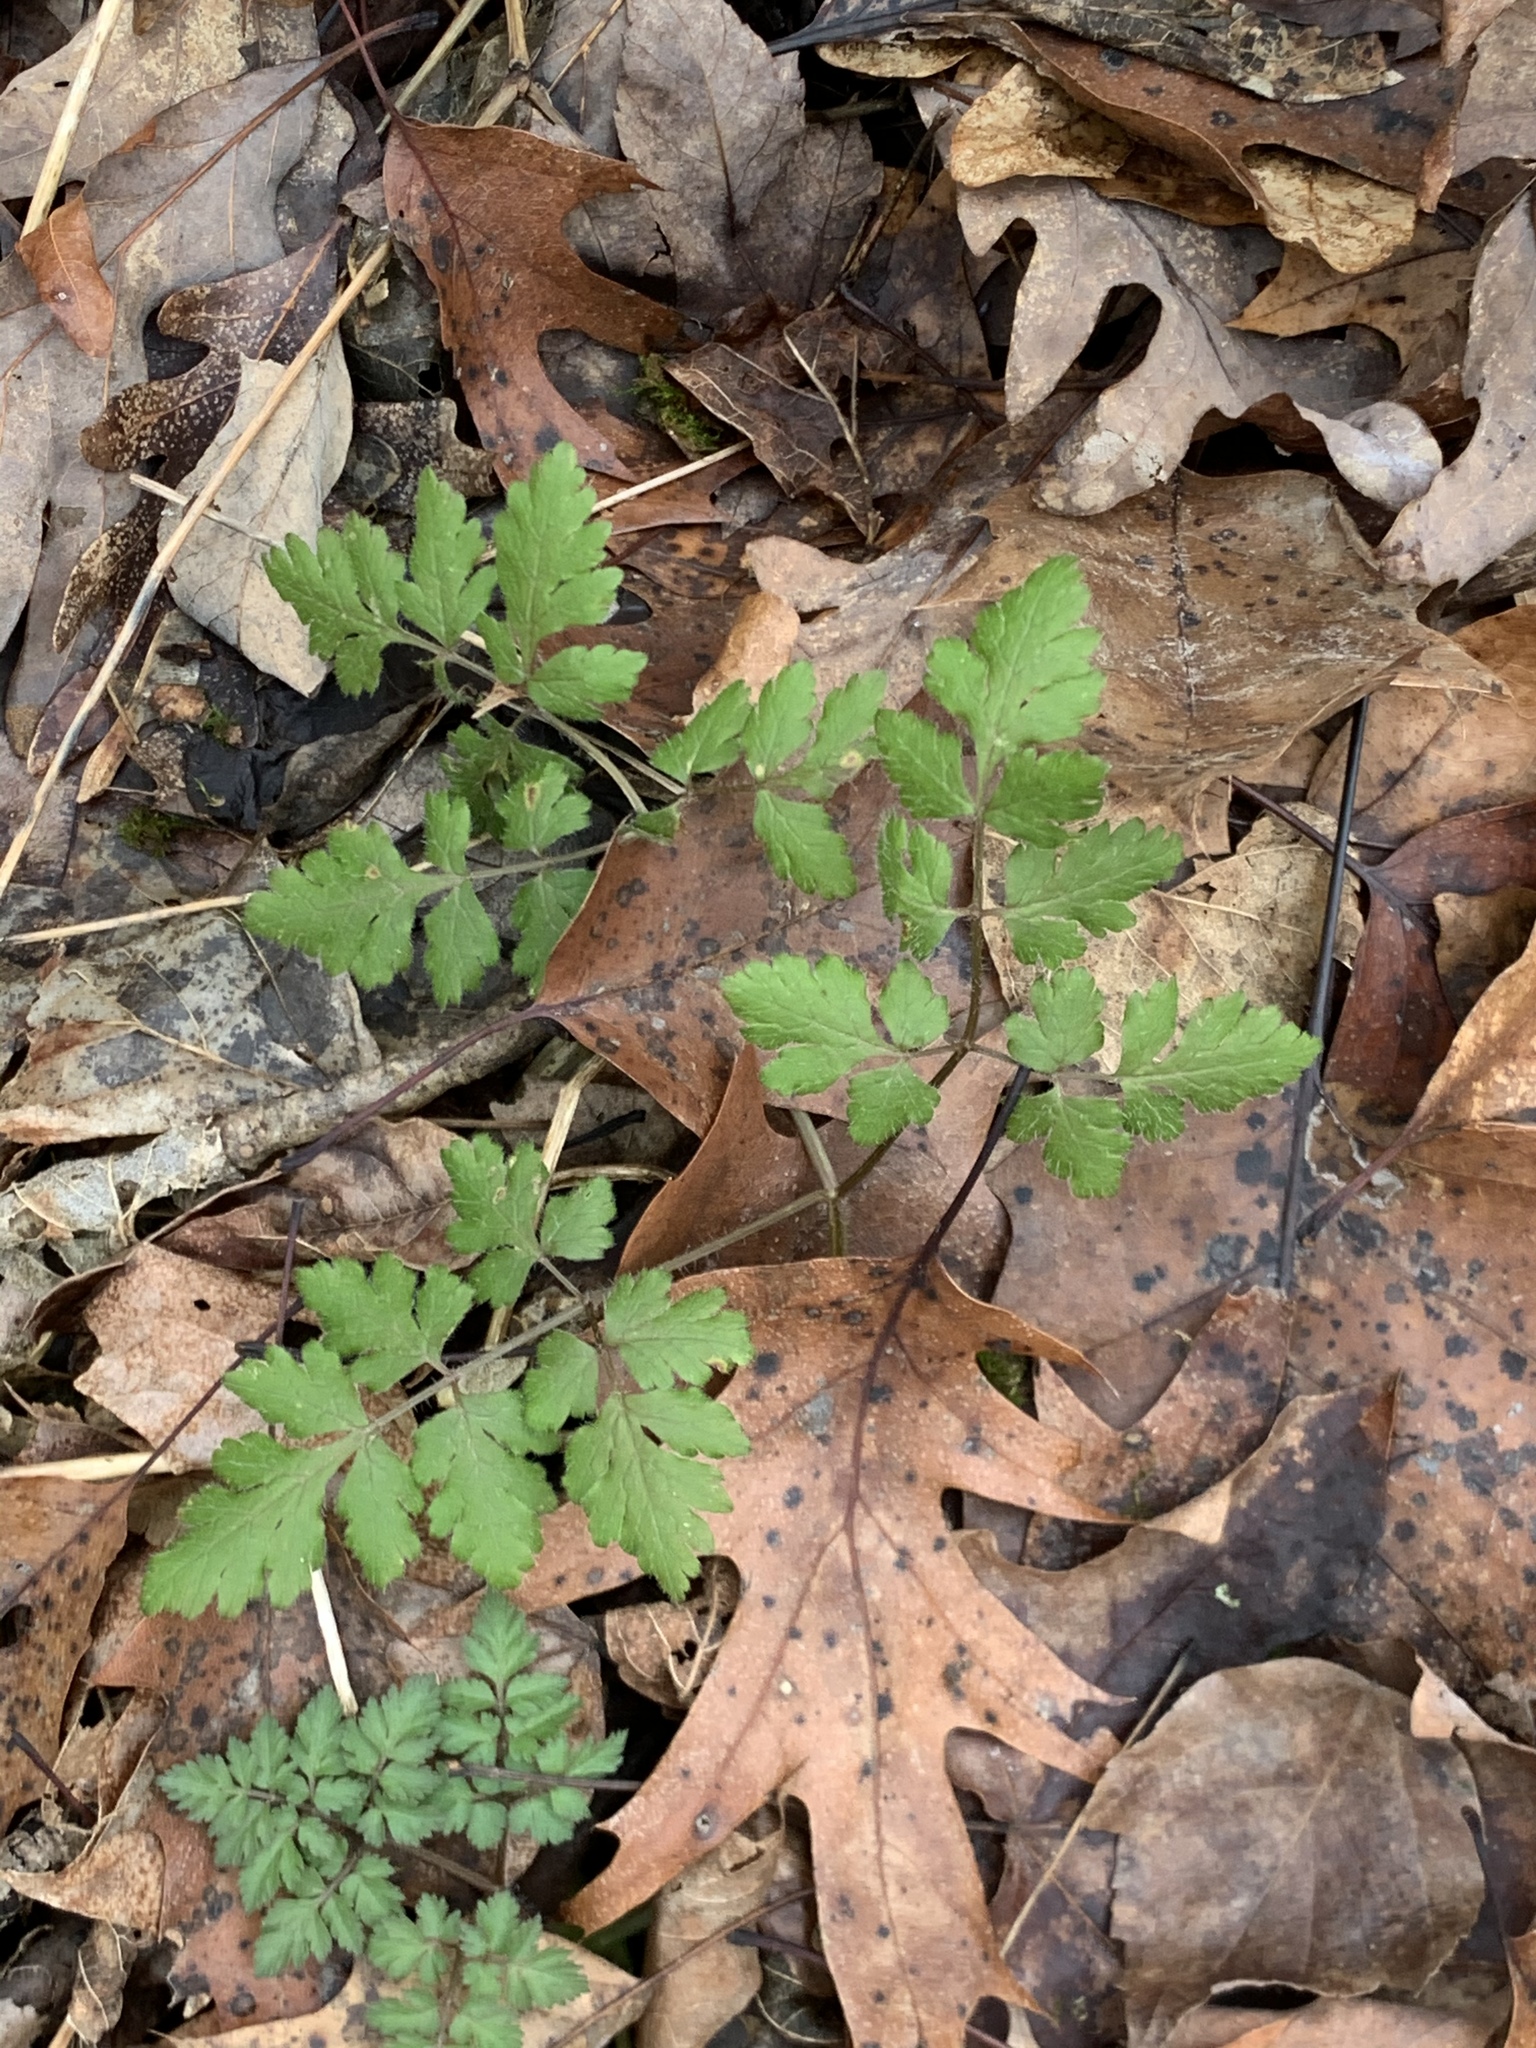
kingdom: Plantae
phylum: Tracheophyta
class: Magnoliopsida
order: Apiales
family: Apiaceae
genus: Osmorhiza
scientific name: Osmorhiza claytonii
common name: Hairy sweet cicely
